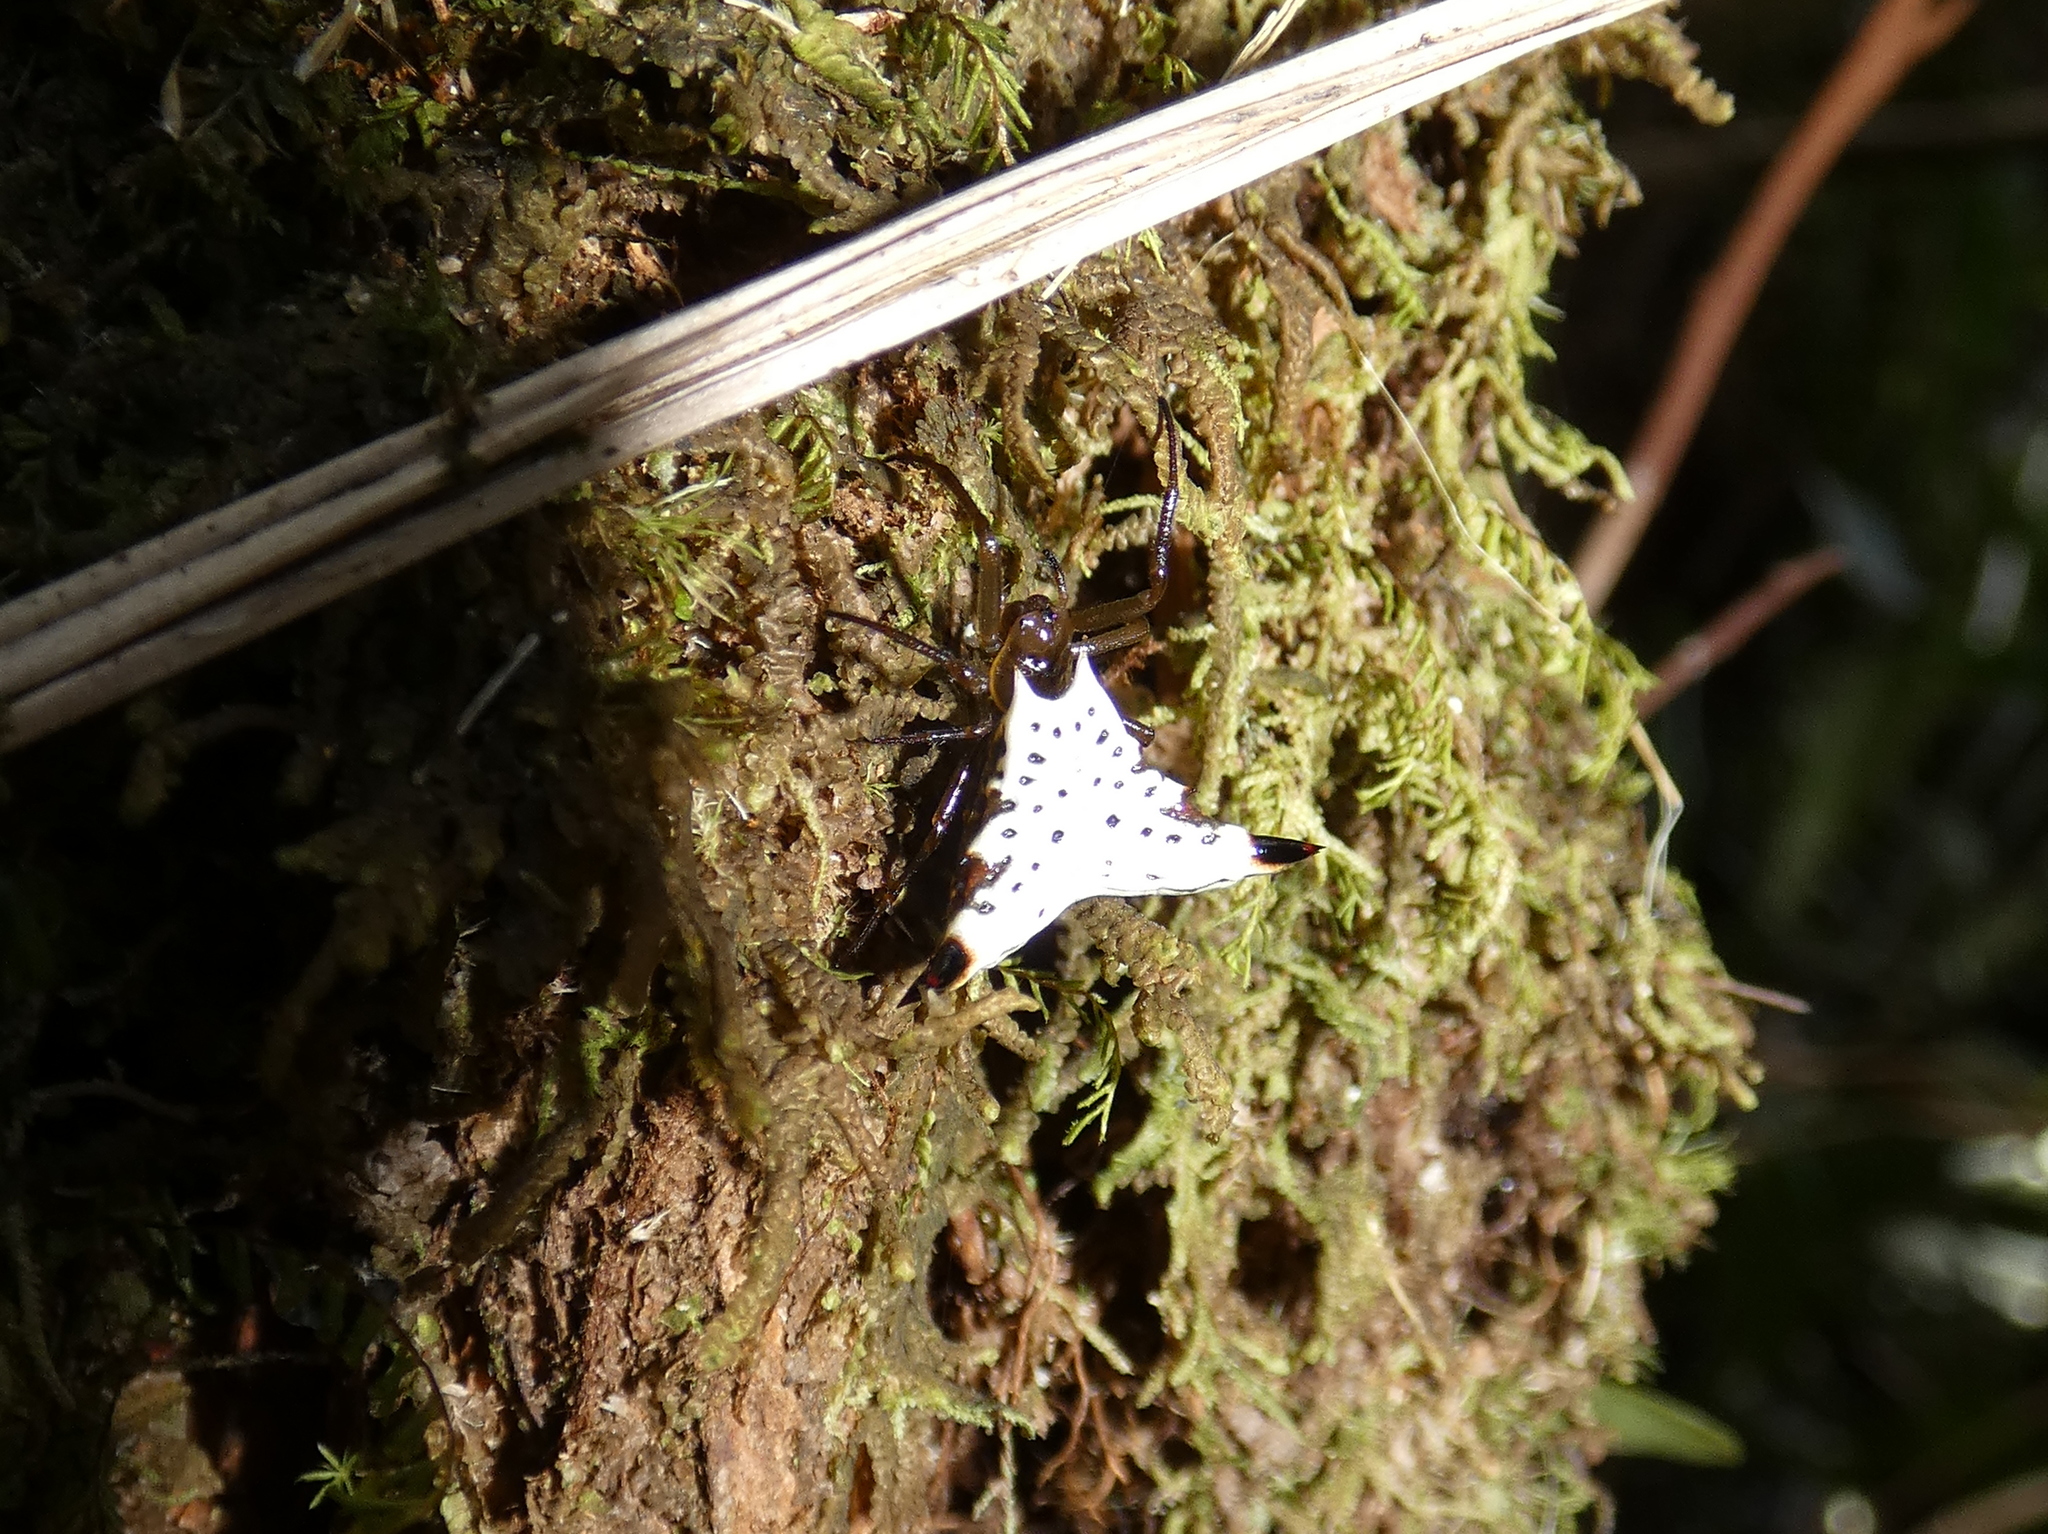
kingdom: Animalia
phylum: Arthropoda
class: Arachnida
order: Araneae
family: Araneidae
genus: Micrathena
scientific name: Micrathena lucasi
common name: Orb weavers
